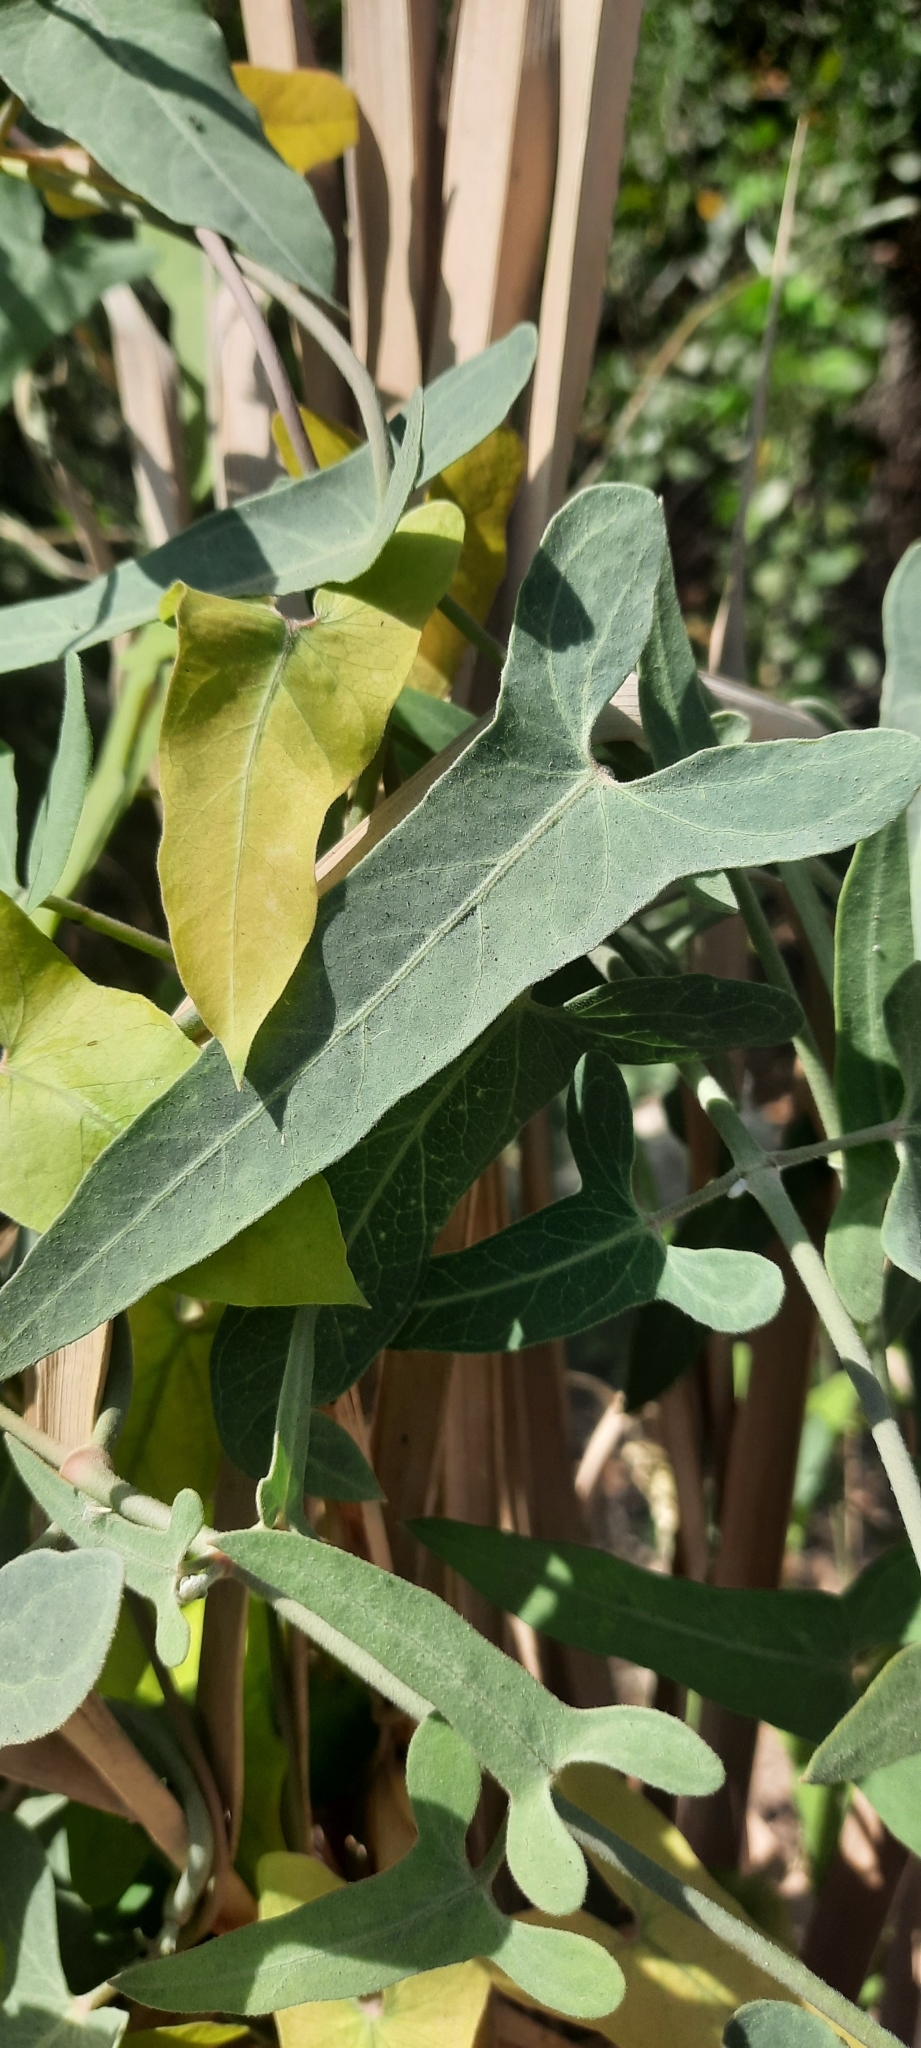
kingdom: Plantae
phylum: Tracheophyta
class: Magnoliopsida
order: Gentianales
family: Apocynaceae
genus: Cynanchum
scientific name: Cynanchum acutum
